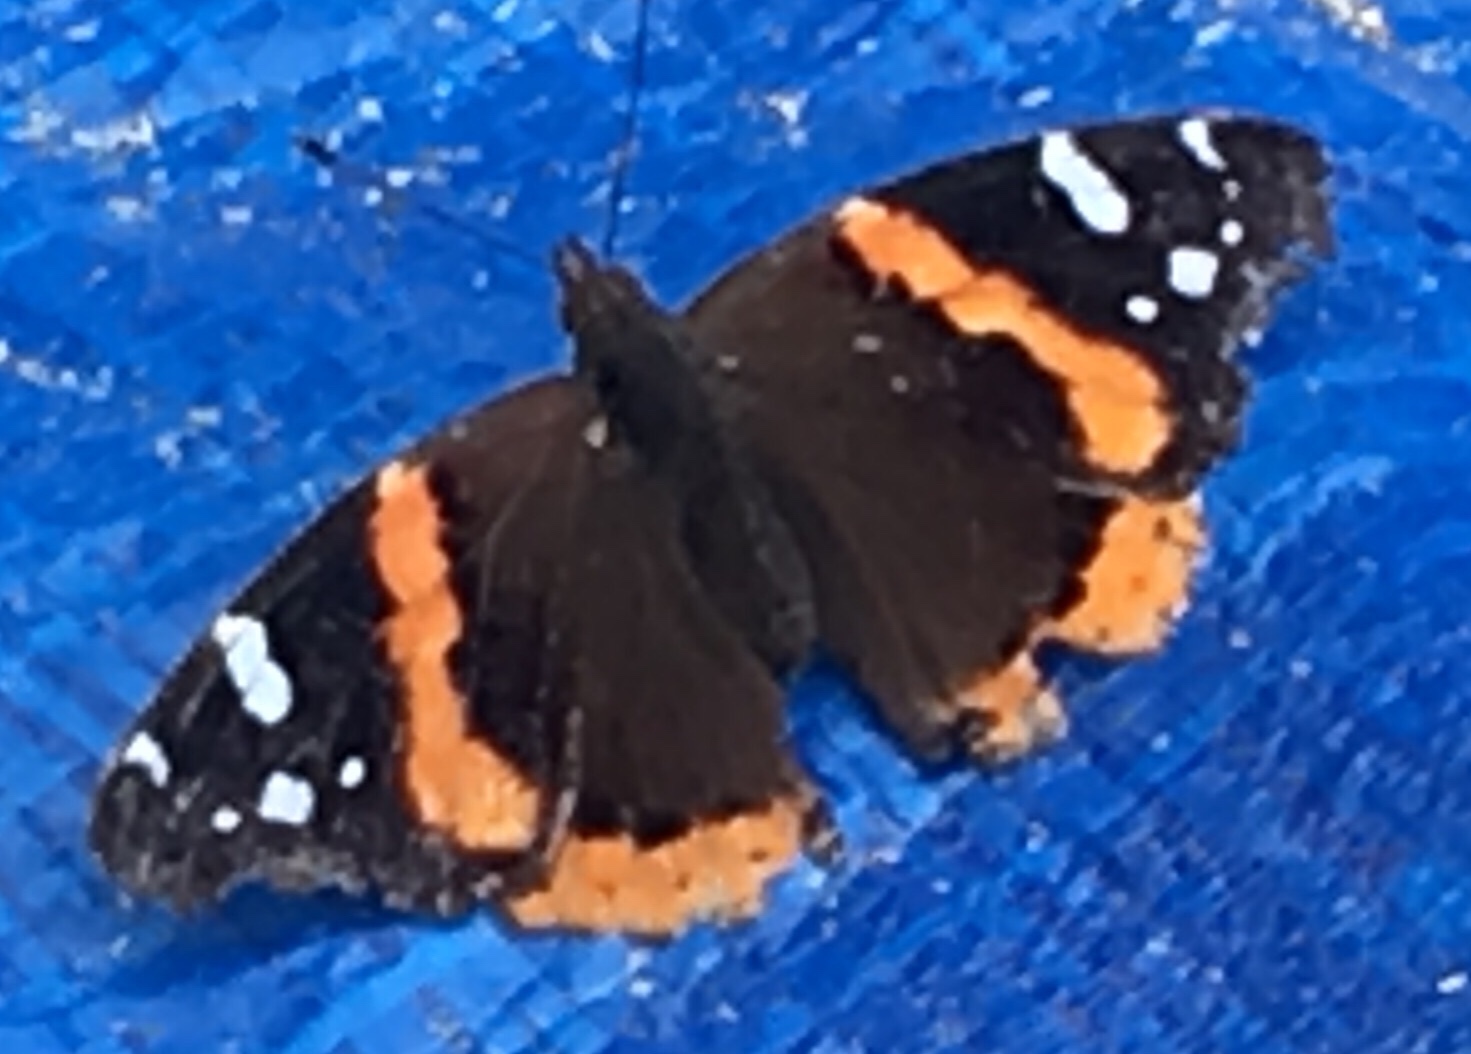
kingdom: Animalia
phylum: Arthropoda
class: Insecta
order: Lepidoptera
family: Nymphalidae
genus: Vanessa
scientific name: Vanessa atalanta
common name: Red admiral
